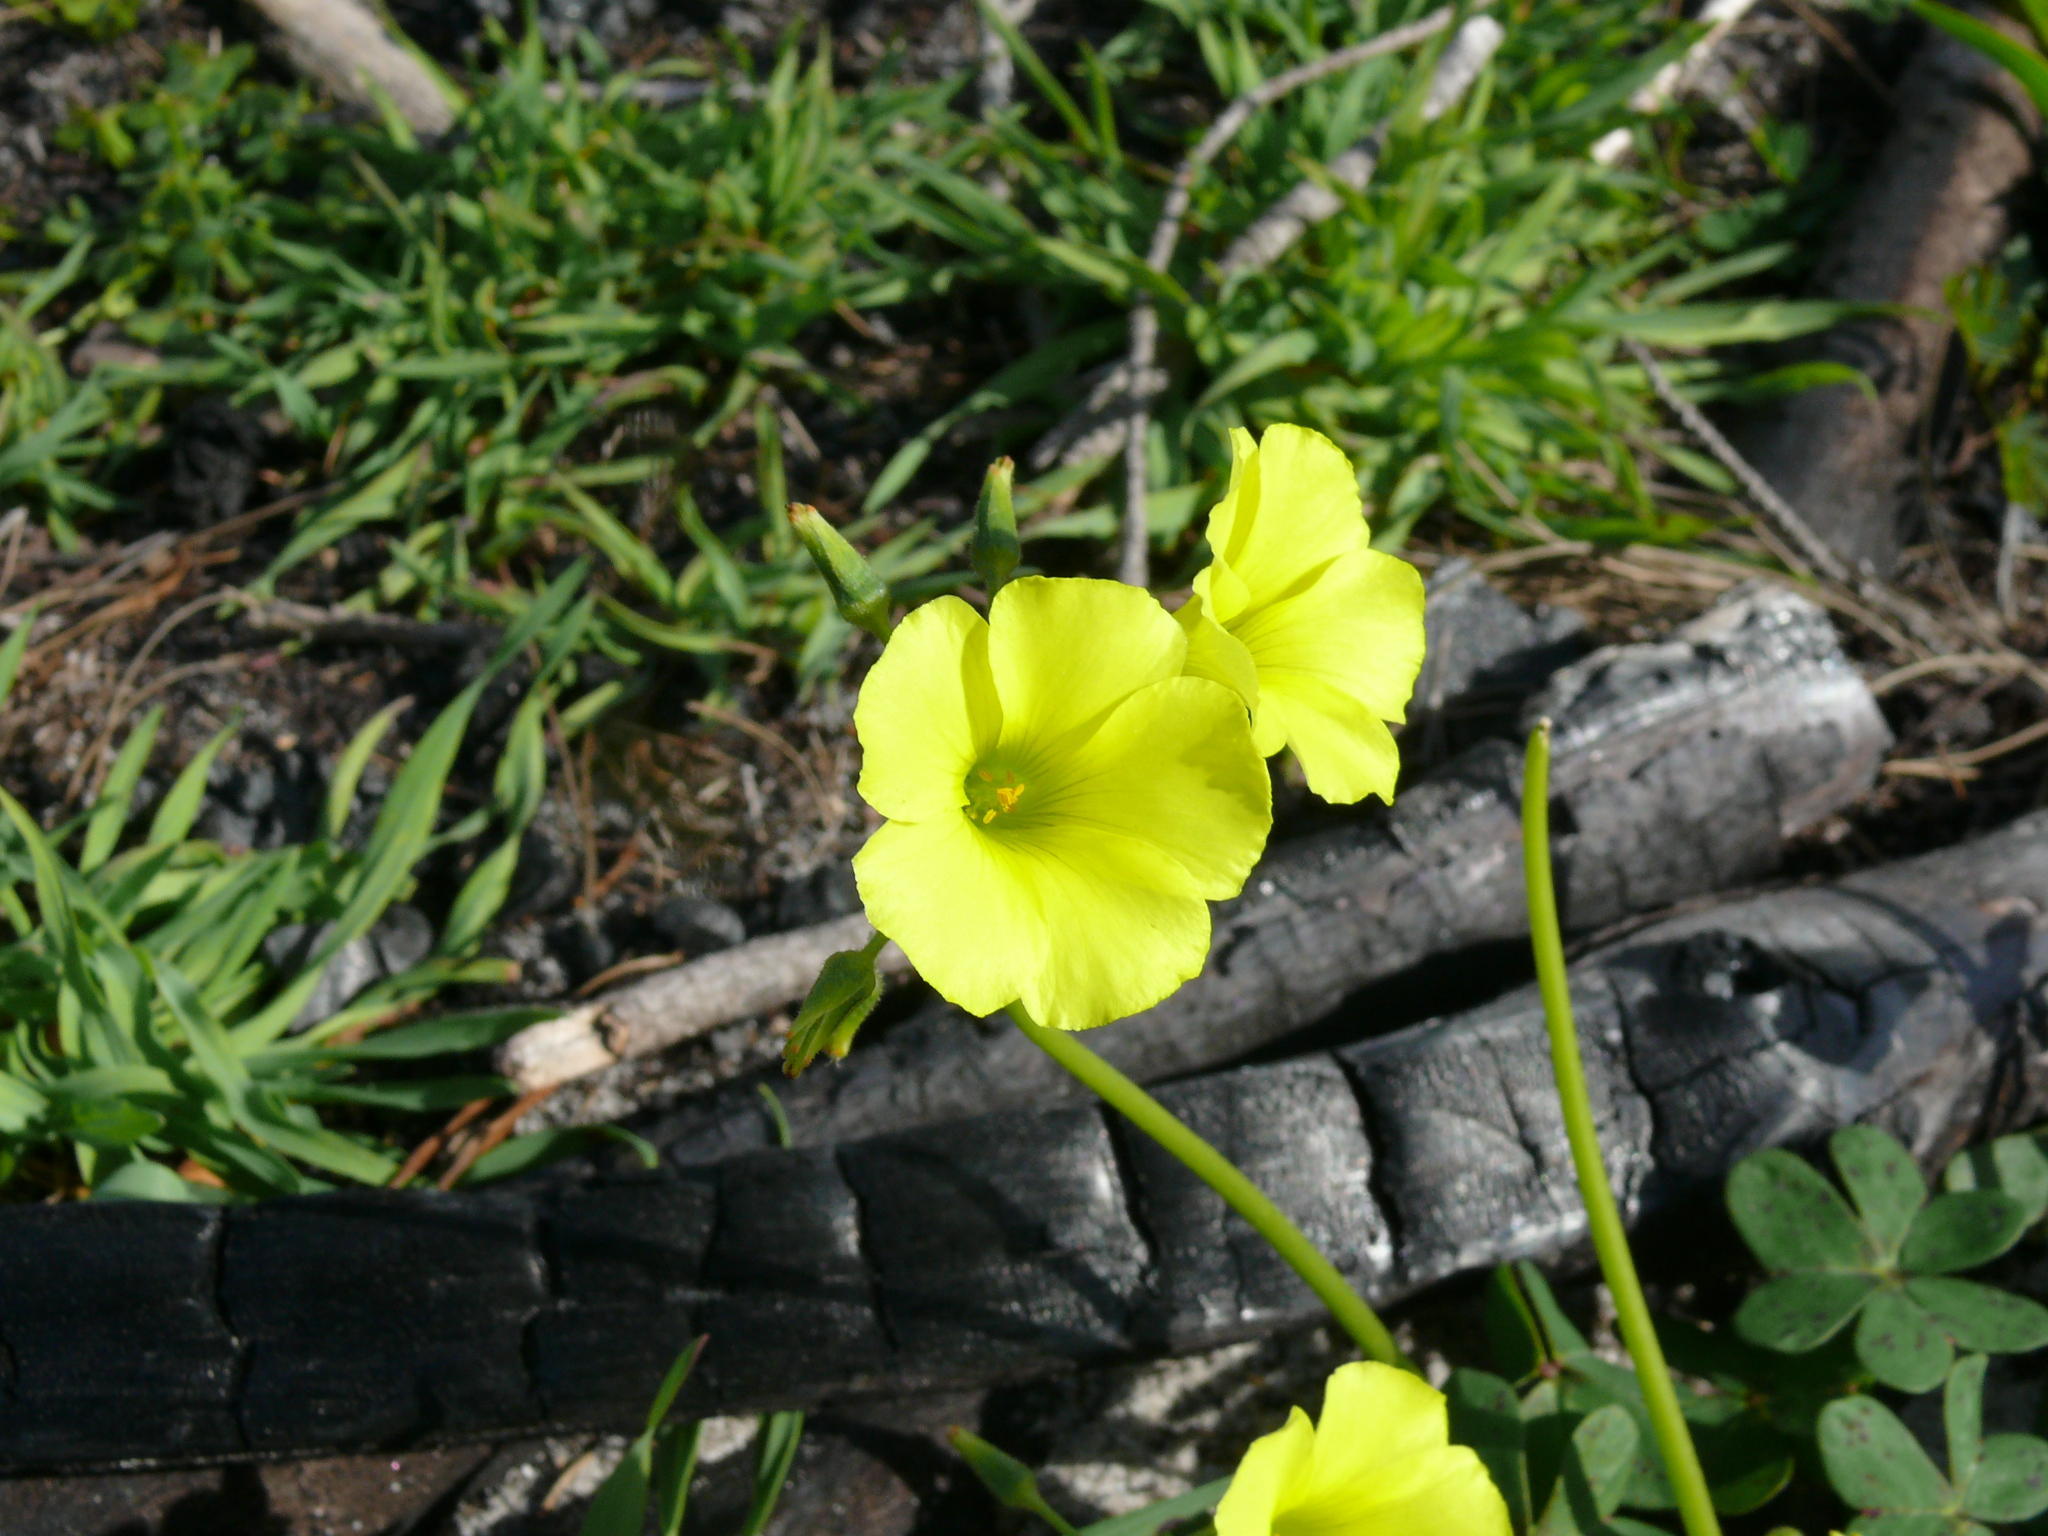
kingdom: Plantae
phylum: Tracheophyta
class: Magnoliopsida
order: Oxalidales
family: Oxalidaceae
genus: Oxalis
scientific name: Oxalis pes-caprae
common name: Bermuda-buttercup
